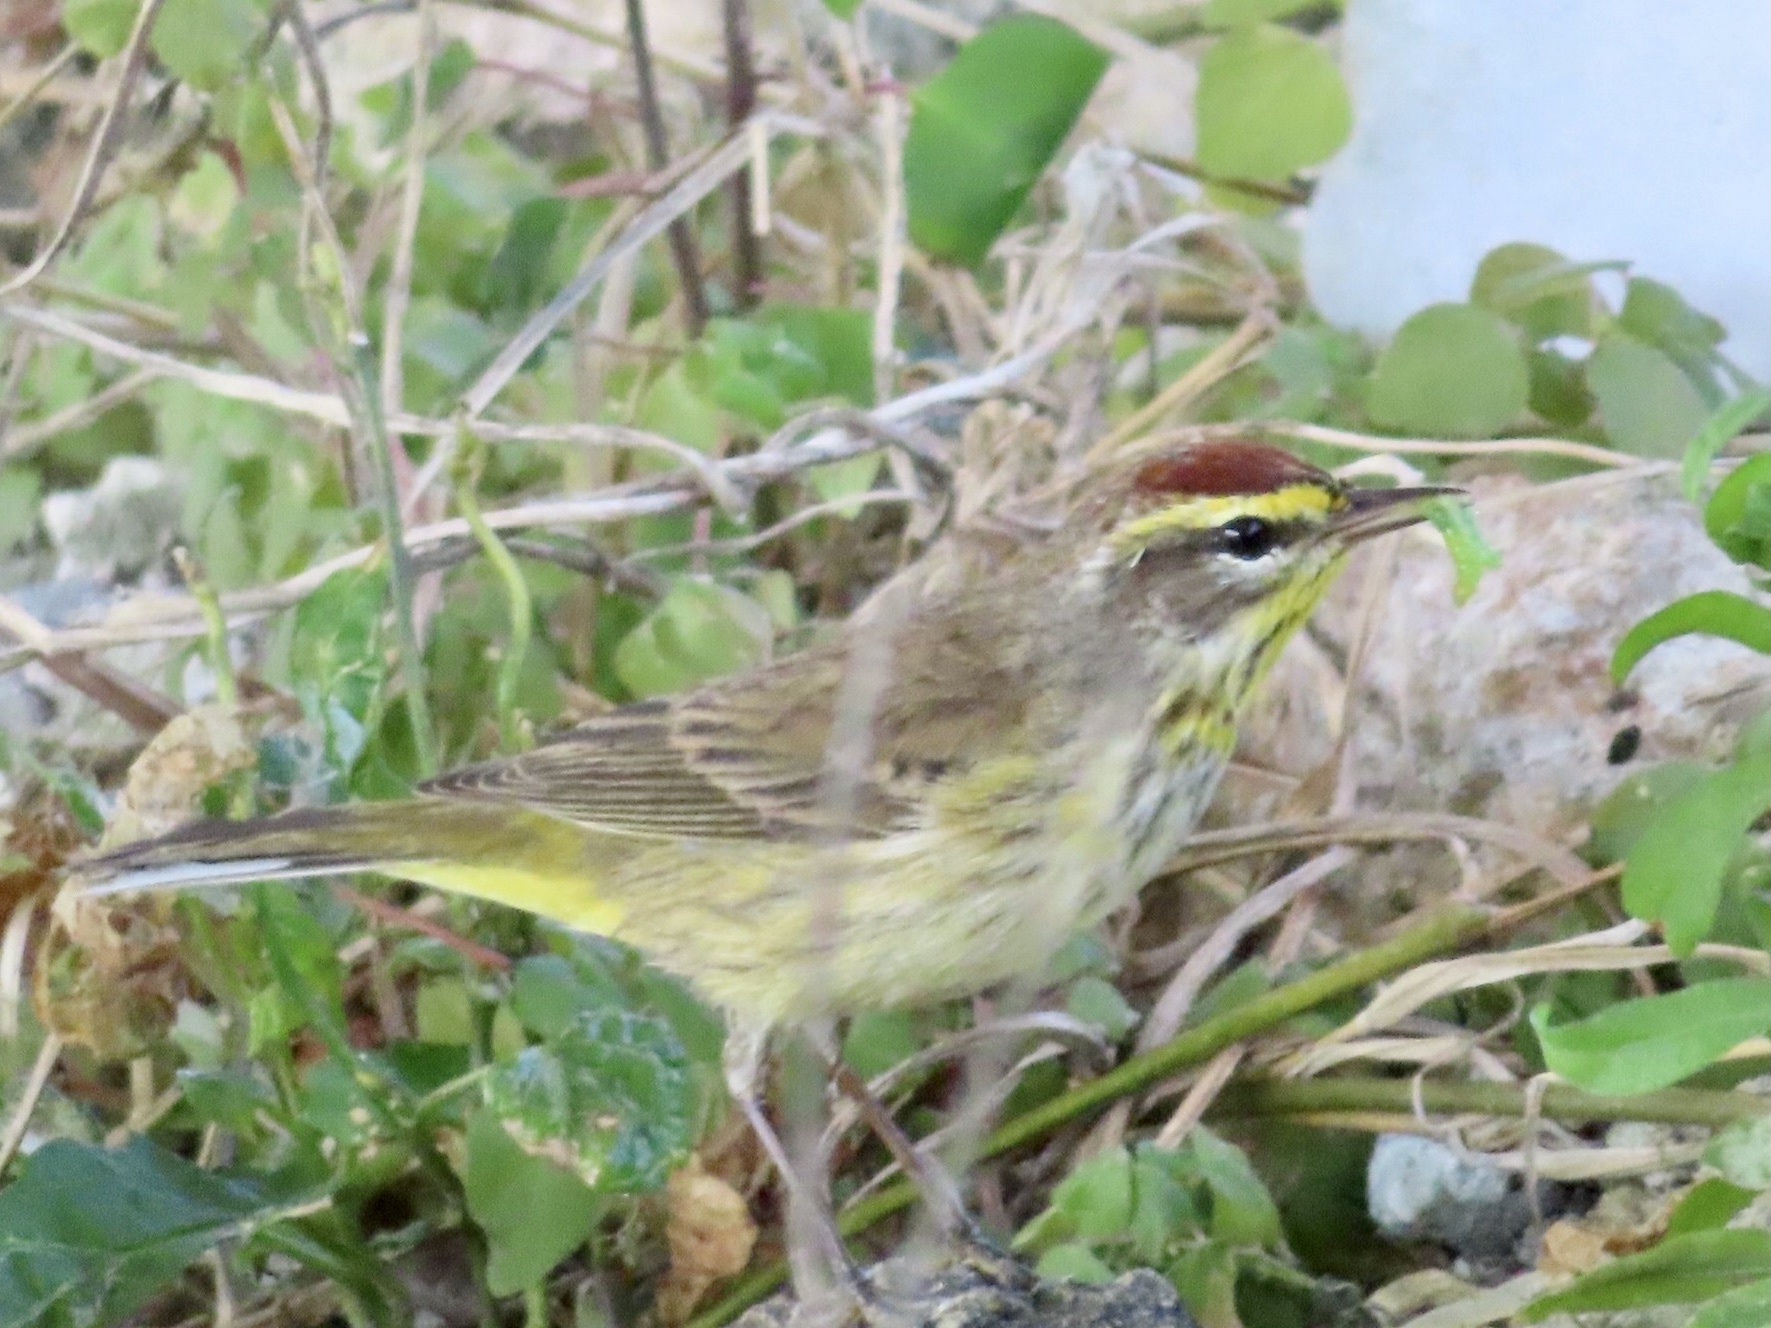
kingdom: Animalia
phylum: Chordata
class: Aves
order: Passeriformes
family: Parulidae
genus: Setophaga
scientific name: Setophaga palmarum
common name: Palm warbler
